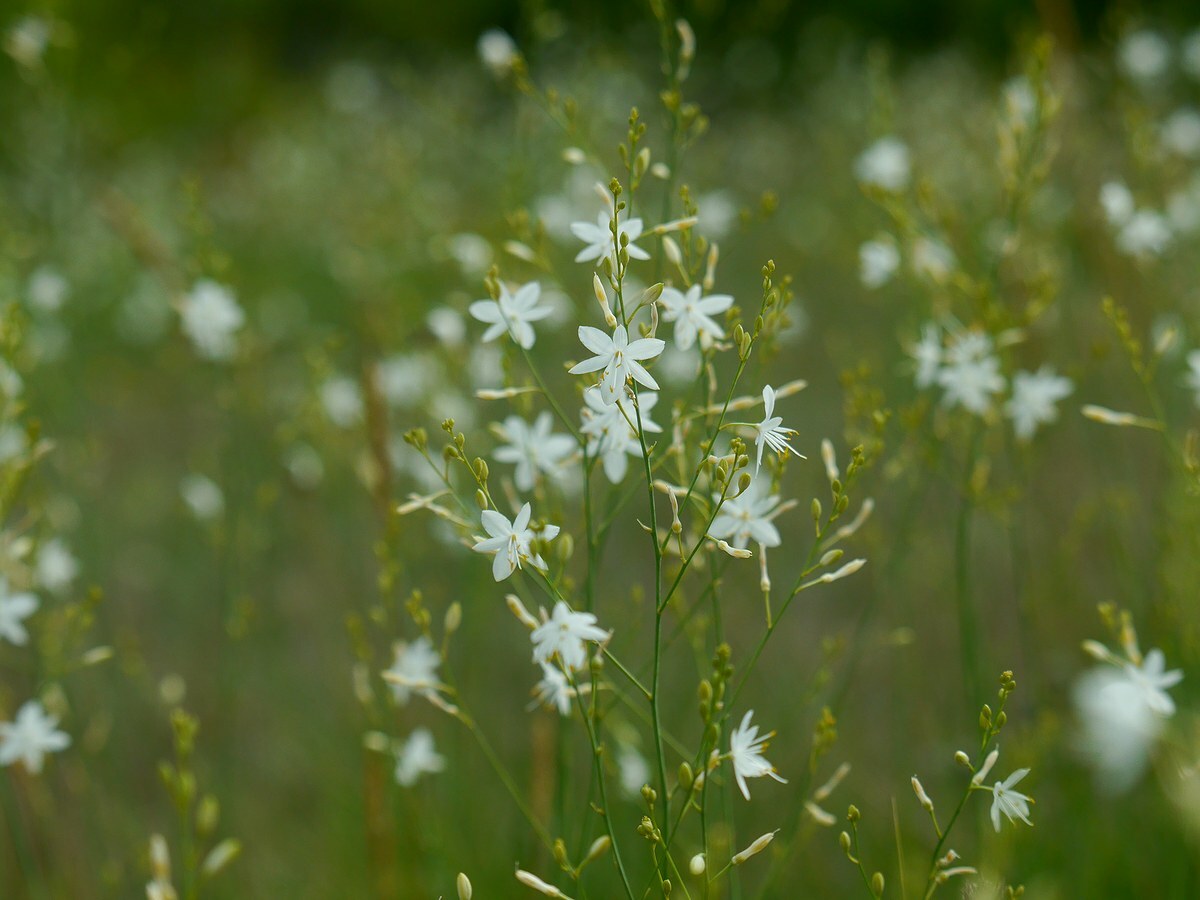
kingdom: Plantae
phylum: Tracheophyta
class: Liliopsida
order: Asparagales
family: Asparagaceae
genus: Anthericum
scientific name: Anthericum ramosum
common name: Branched st. bernard's-lily
